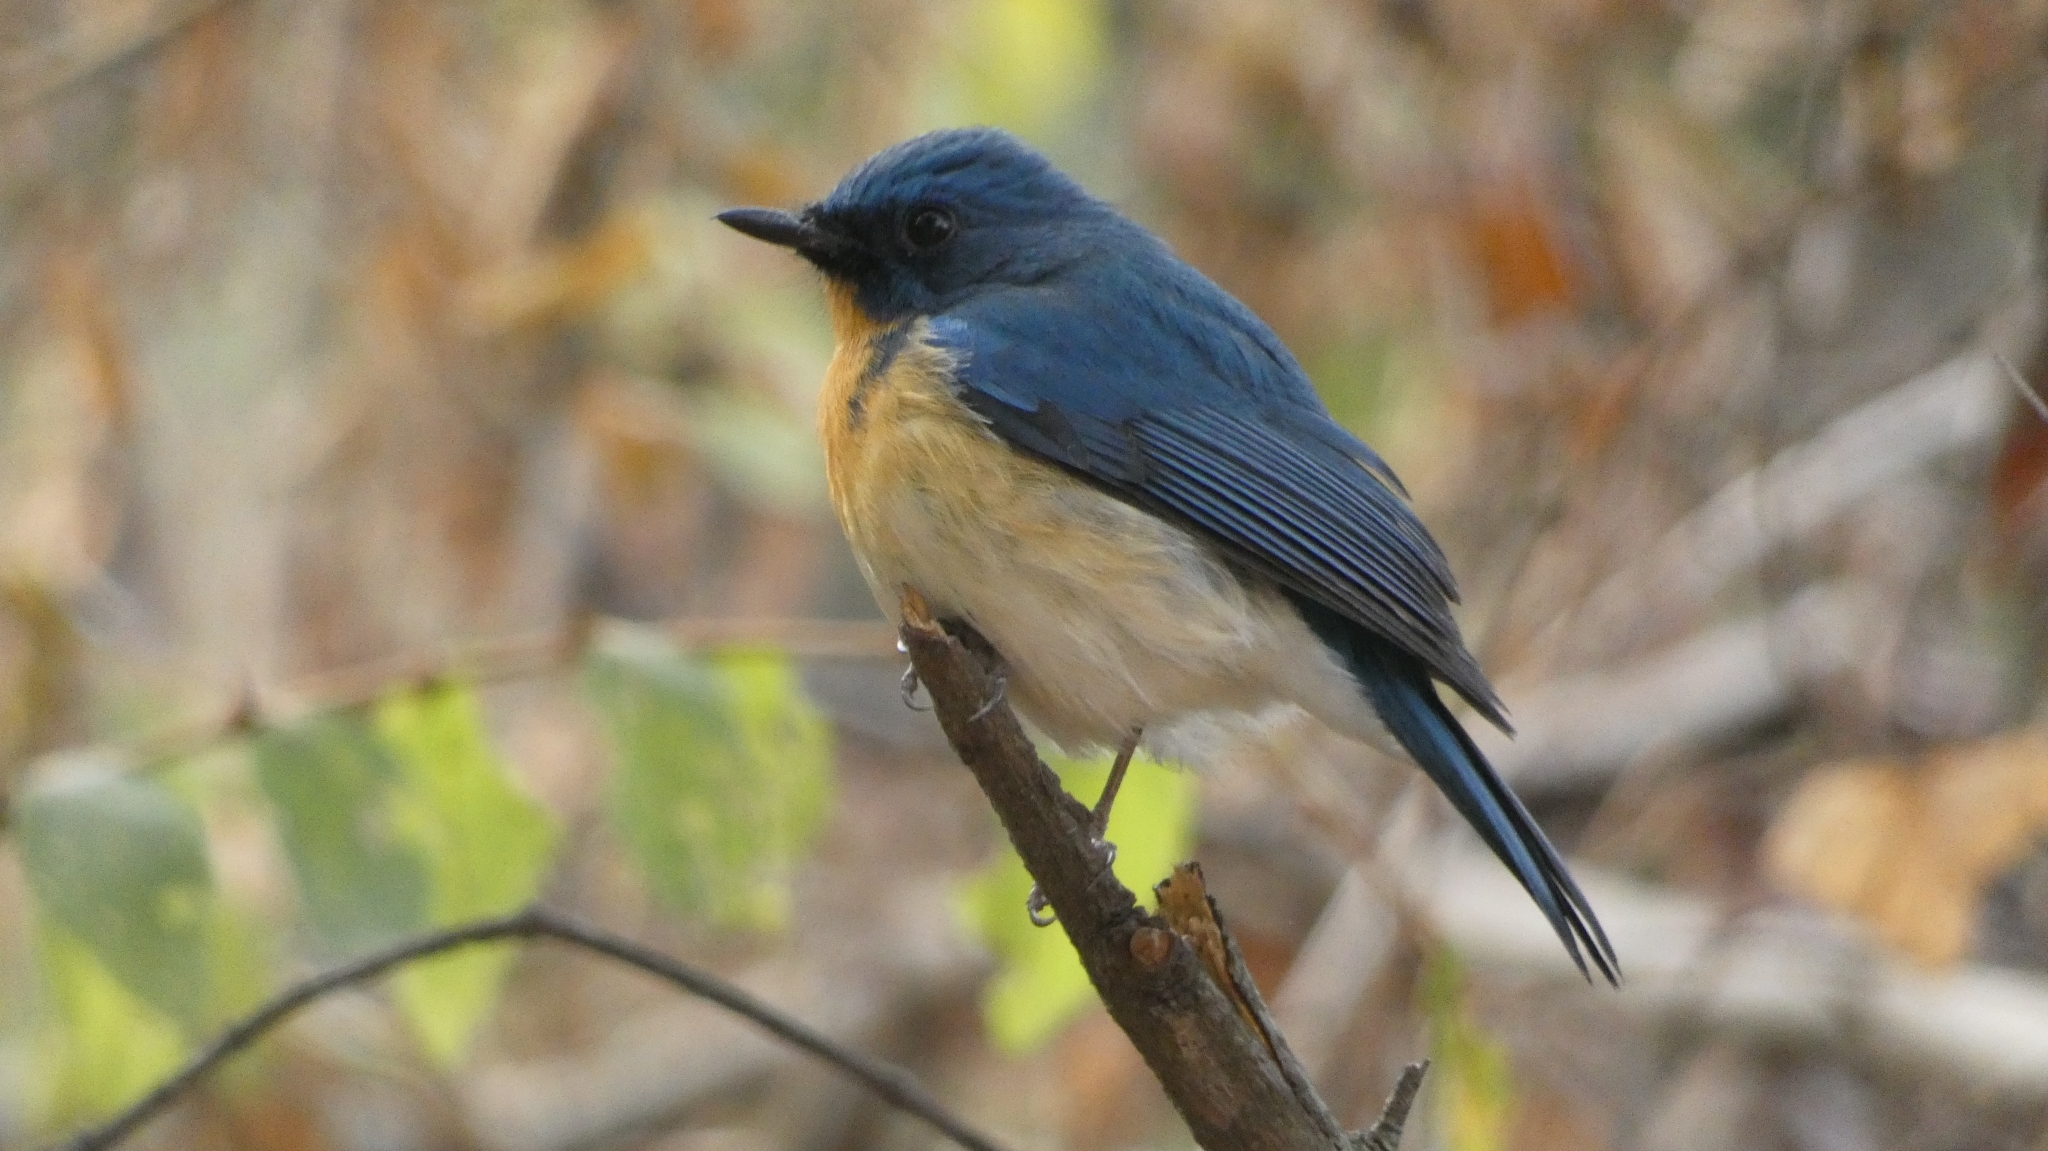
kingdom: Animalia
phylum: Chordata
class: Aves
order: Passeriformes
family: Muscicapidae
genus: Cyornis
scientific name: Cyornis tickelliae
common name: Tickell's blue flycatcher
